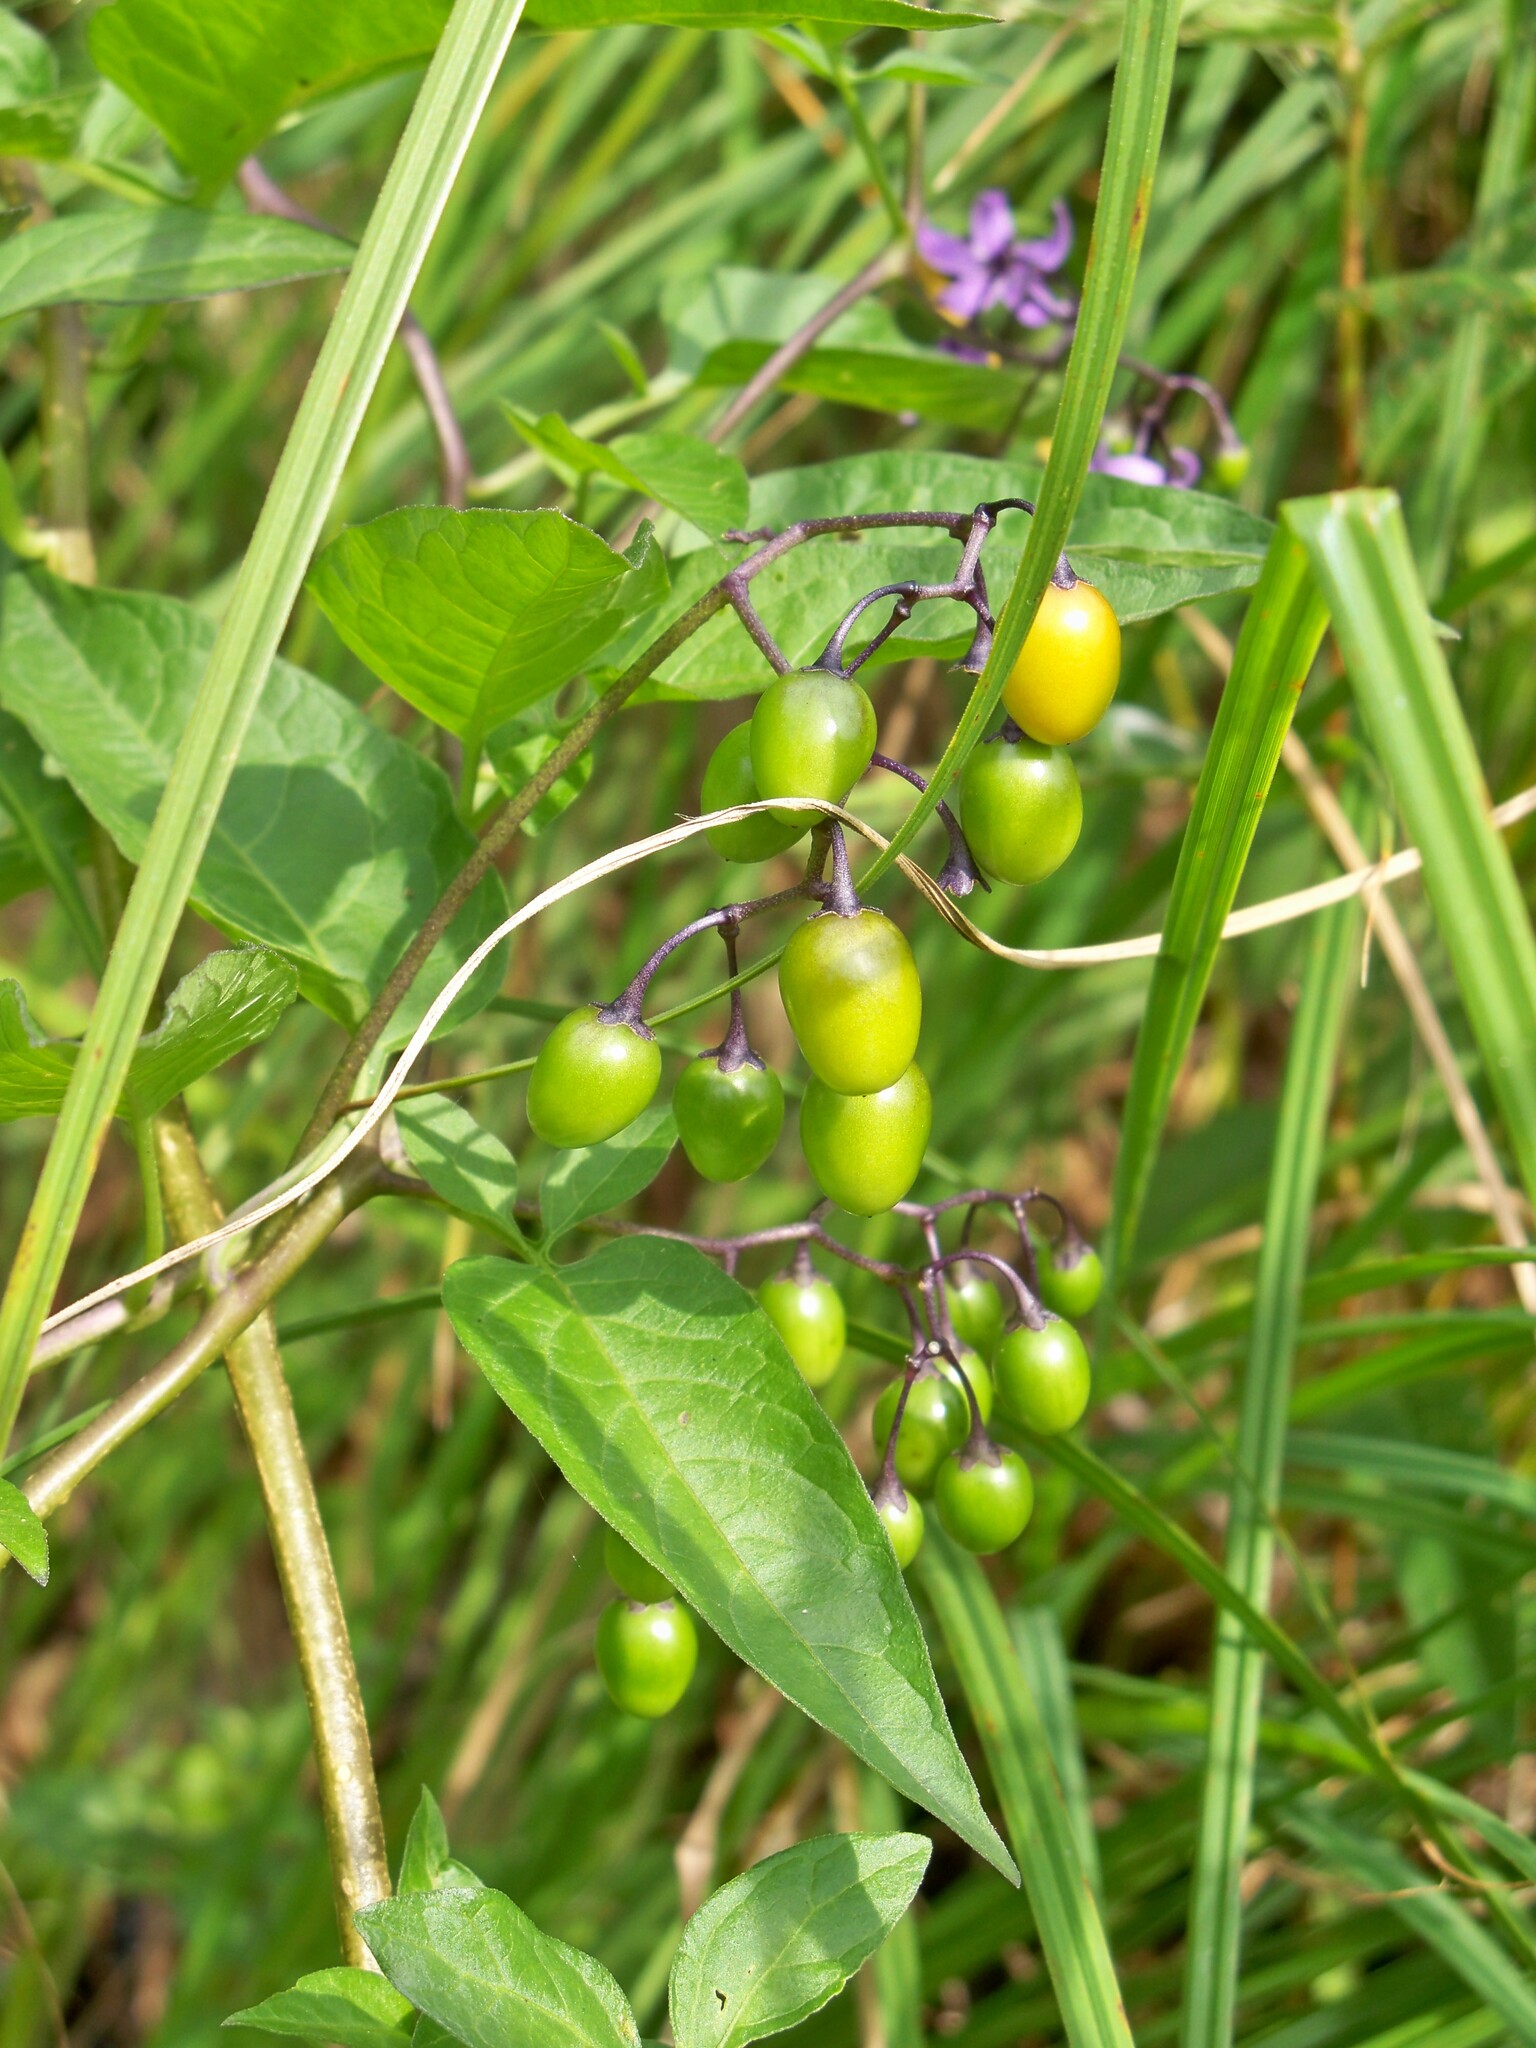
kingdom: Plantae
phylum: Tracheophyta
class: Magnoliopsida
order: Solanales
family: Solanaceae
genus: Solanum
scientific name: Solanum dulcamara
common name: Climbing nightshade
